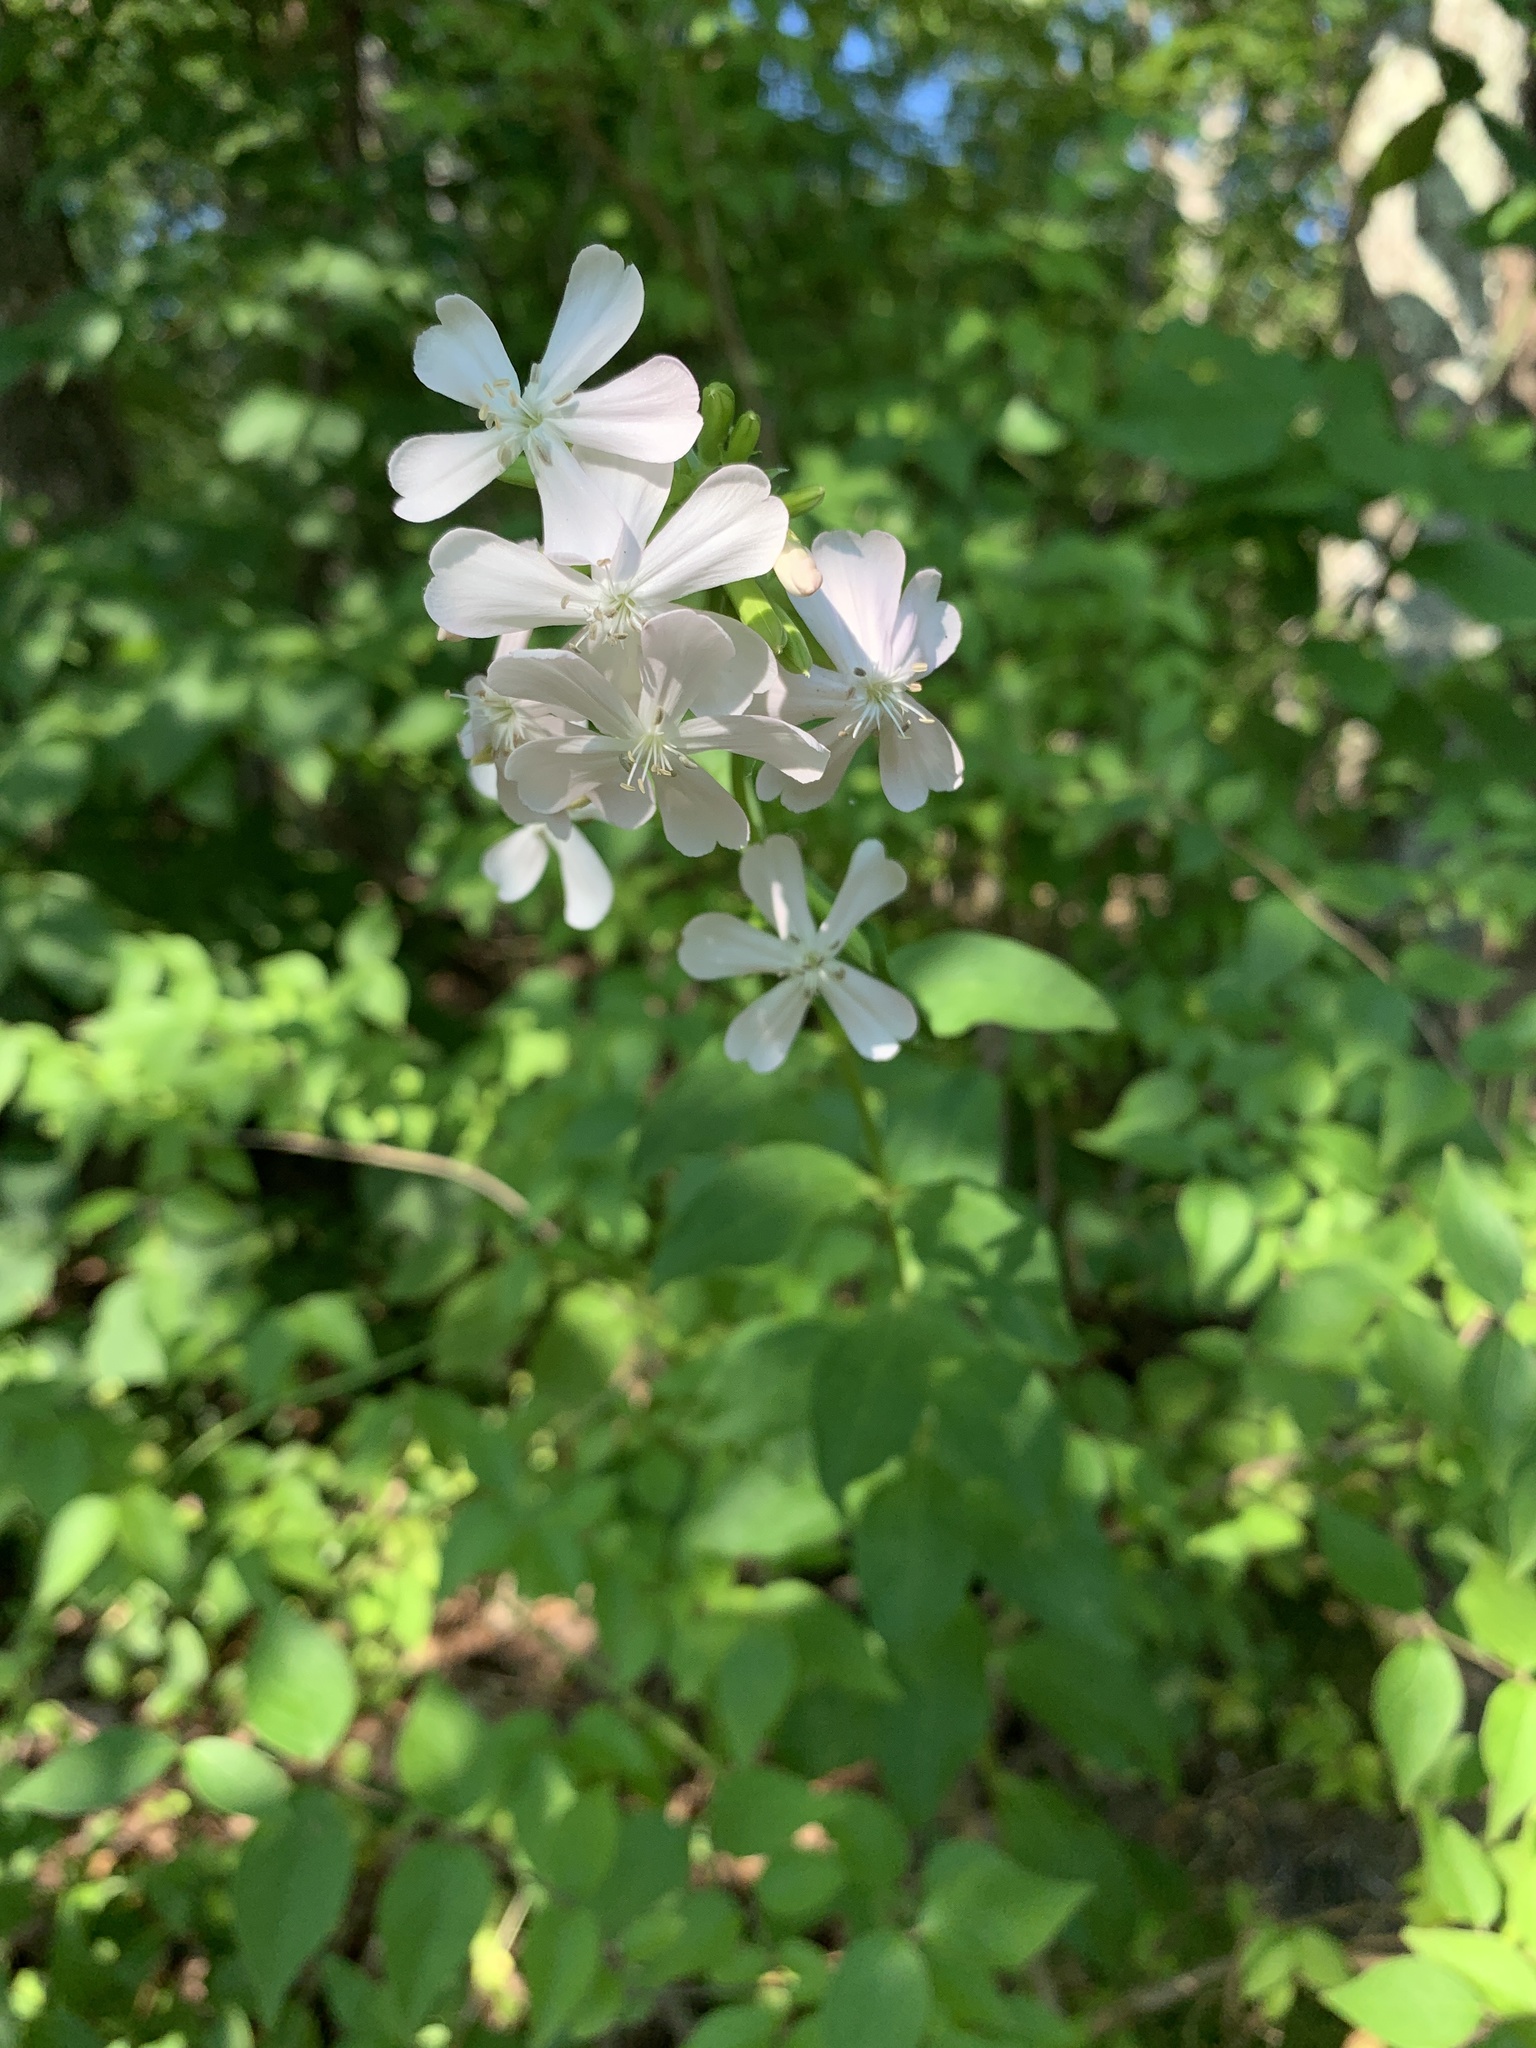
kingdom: Plantae
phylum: Tracheophyta
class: Magnoliopsida
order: Caryophyllales
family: Caryophyllaceae
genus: Saponaria
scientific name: Saponaria officinalis
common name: Soapwort
